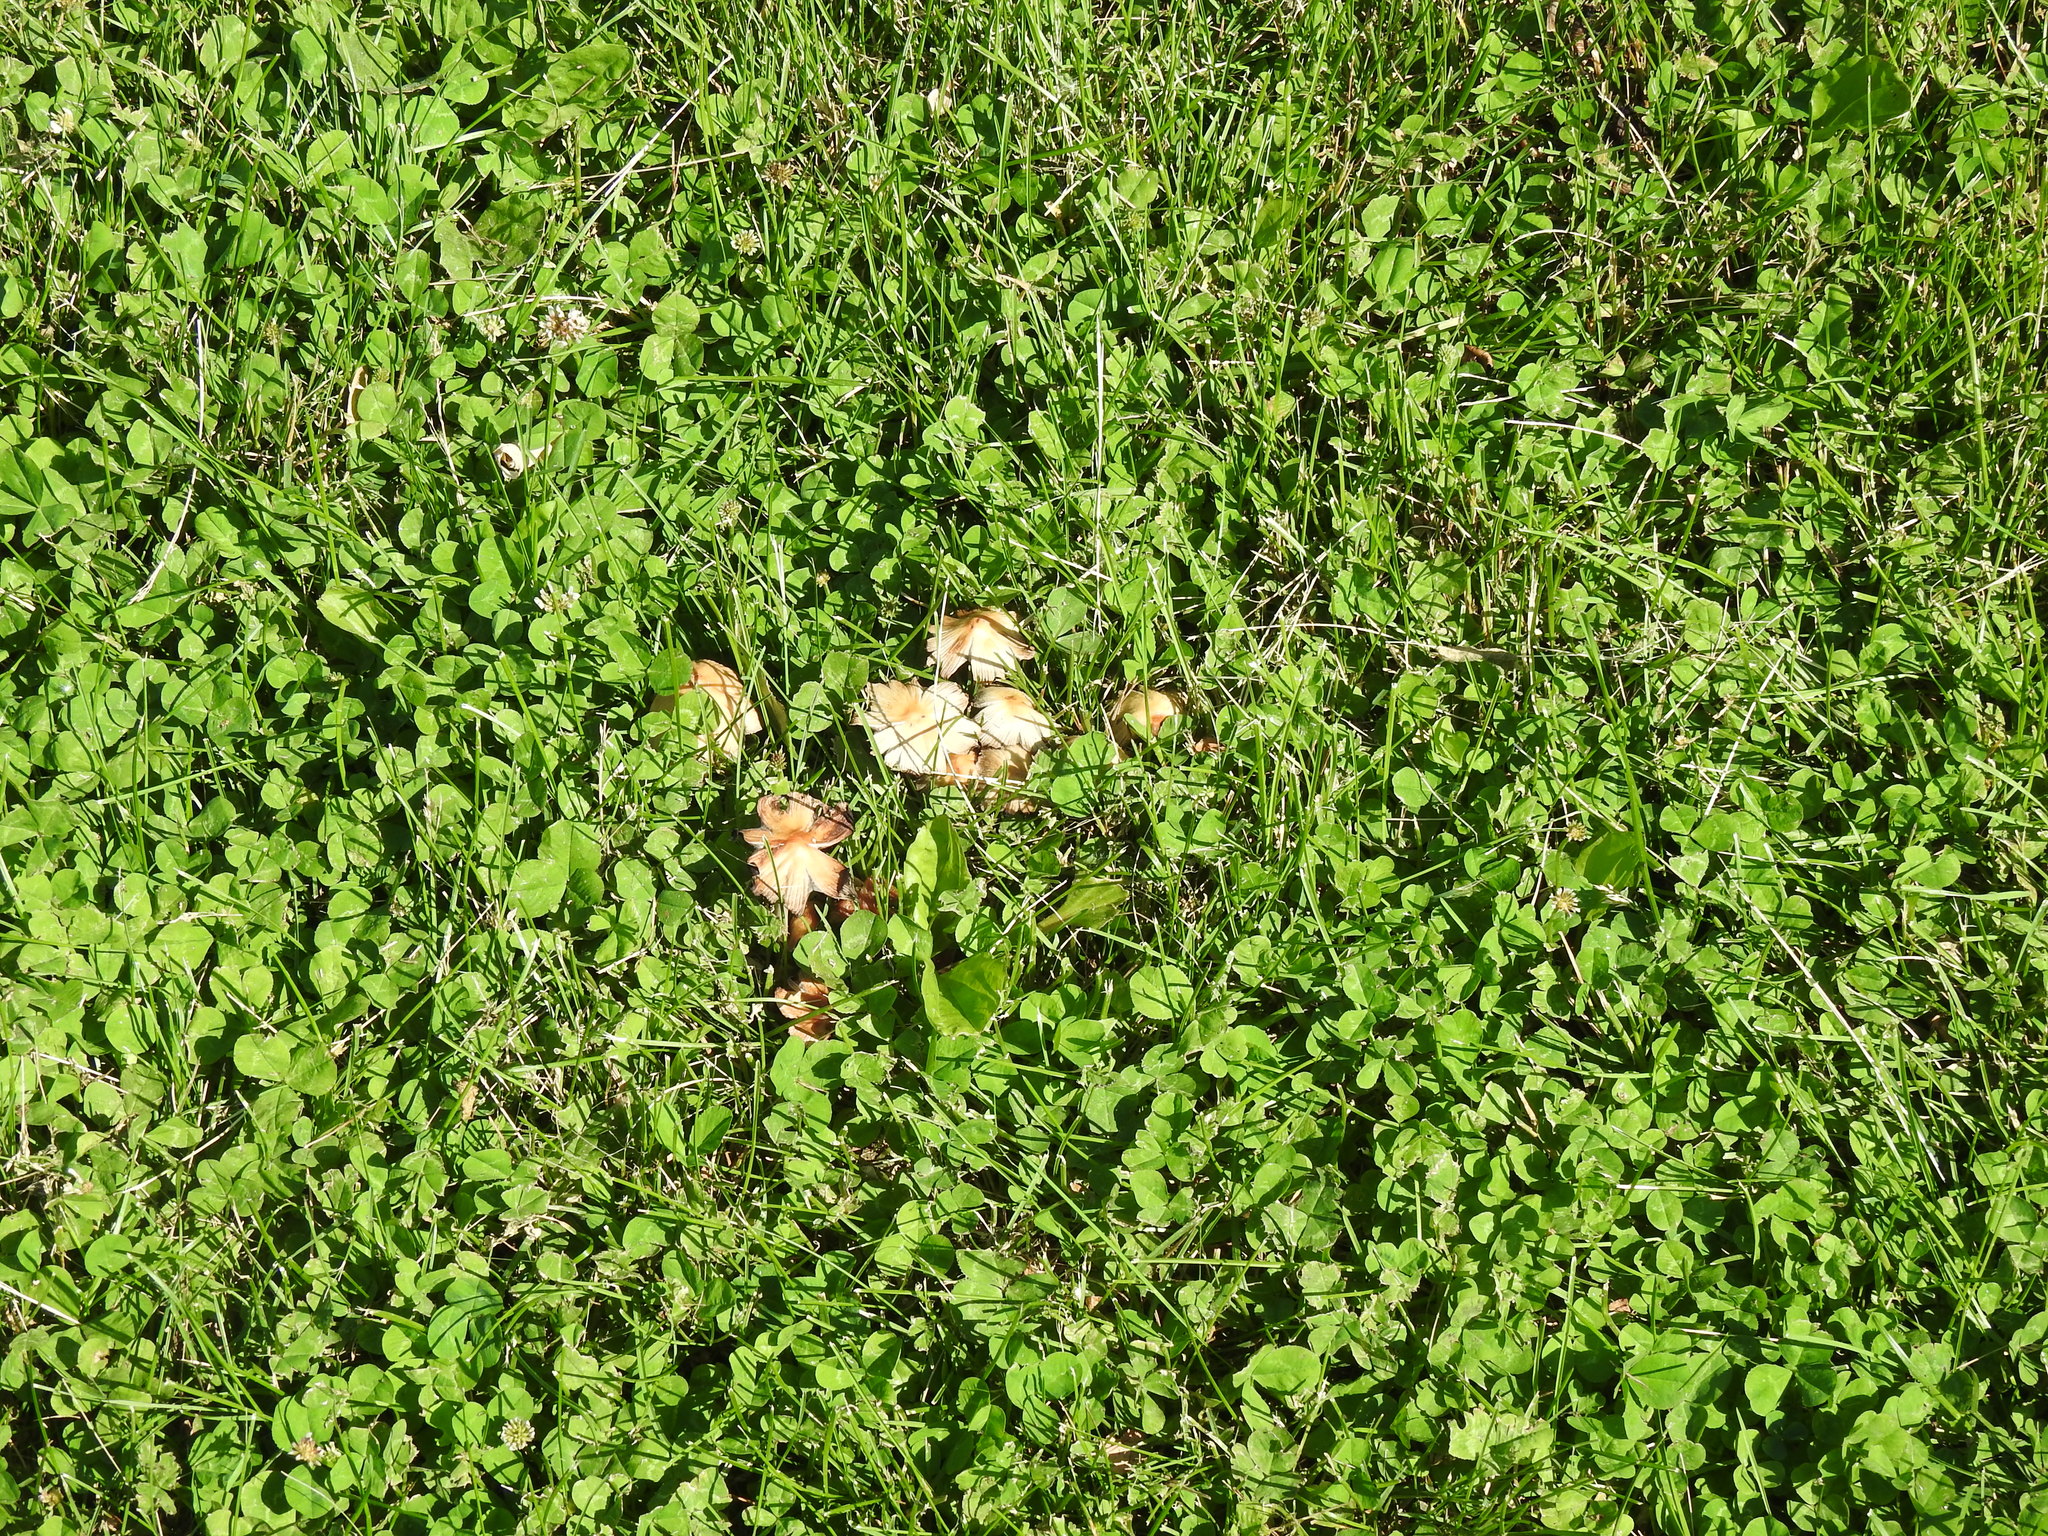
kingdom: Fungi
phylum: Basidiomycota
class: Agaricomycetes
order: Agaricales
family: Psathyrellaceae
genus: Coprinellus
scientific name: Coprinellus micaceus
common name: Glistening ink-cap
